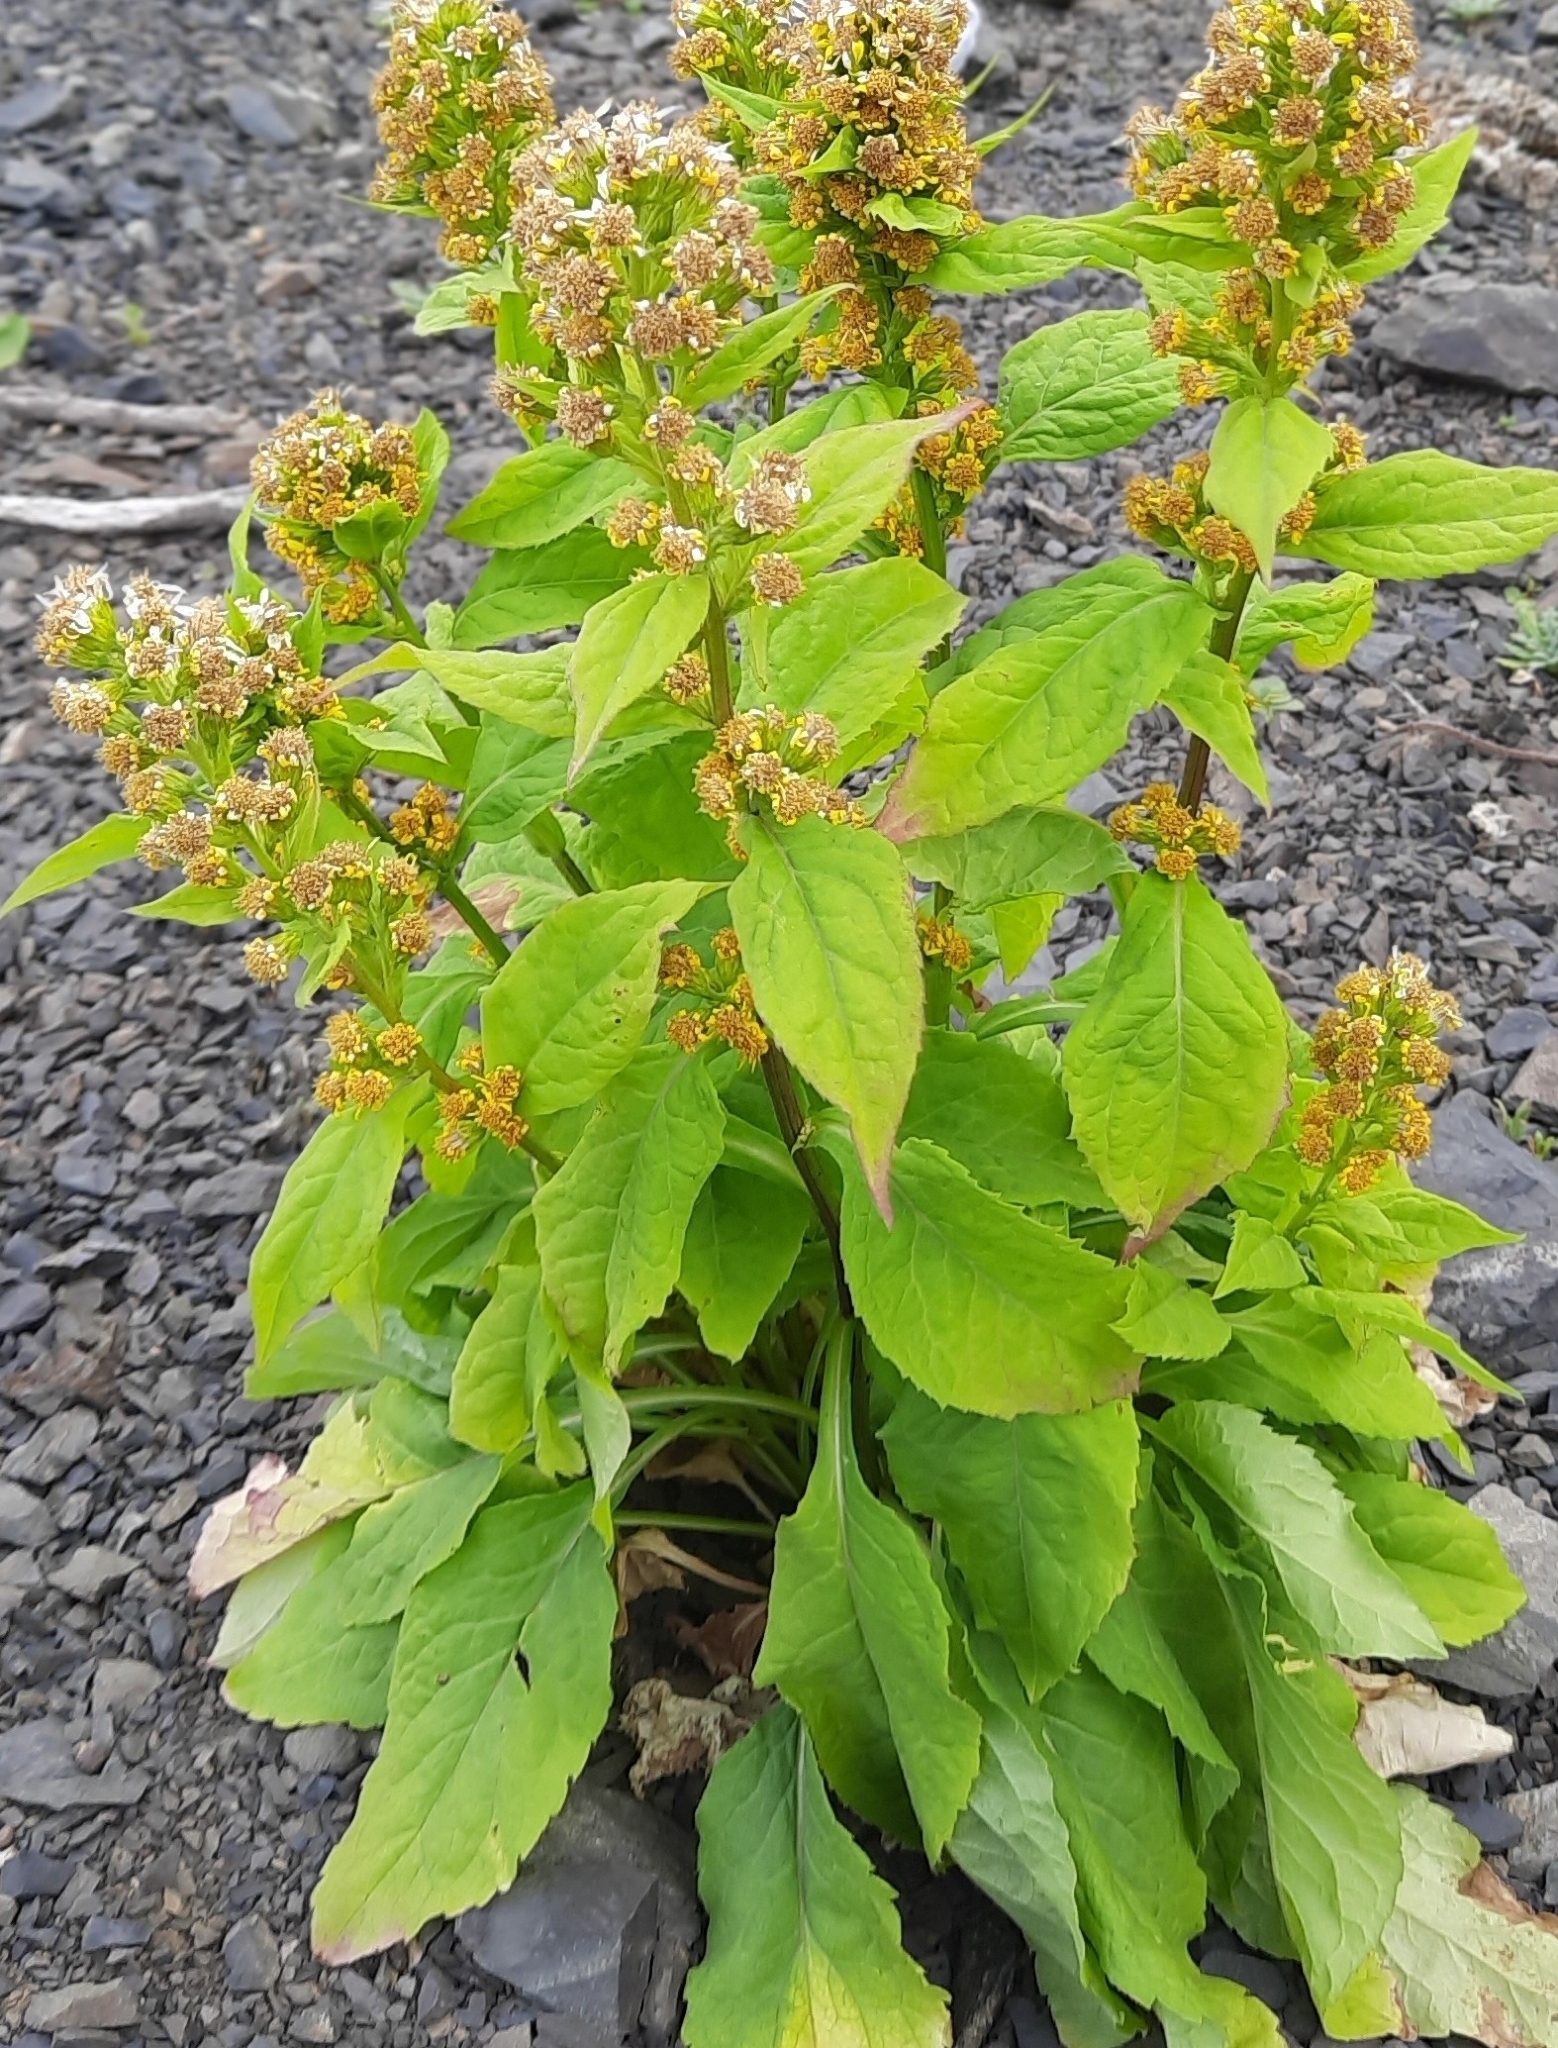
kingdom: Plantae
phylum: Tracheophyta
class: Magnoliopsida
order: Asterales
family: Asteraceae
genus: Solidago
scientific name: Solidago virgaurea
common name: Goldenrod
